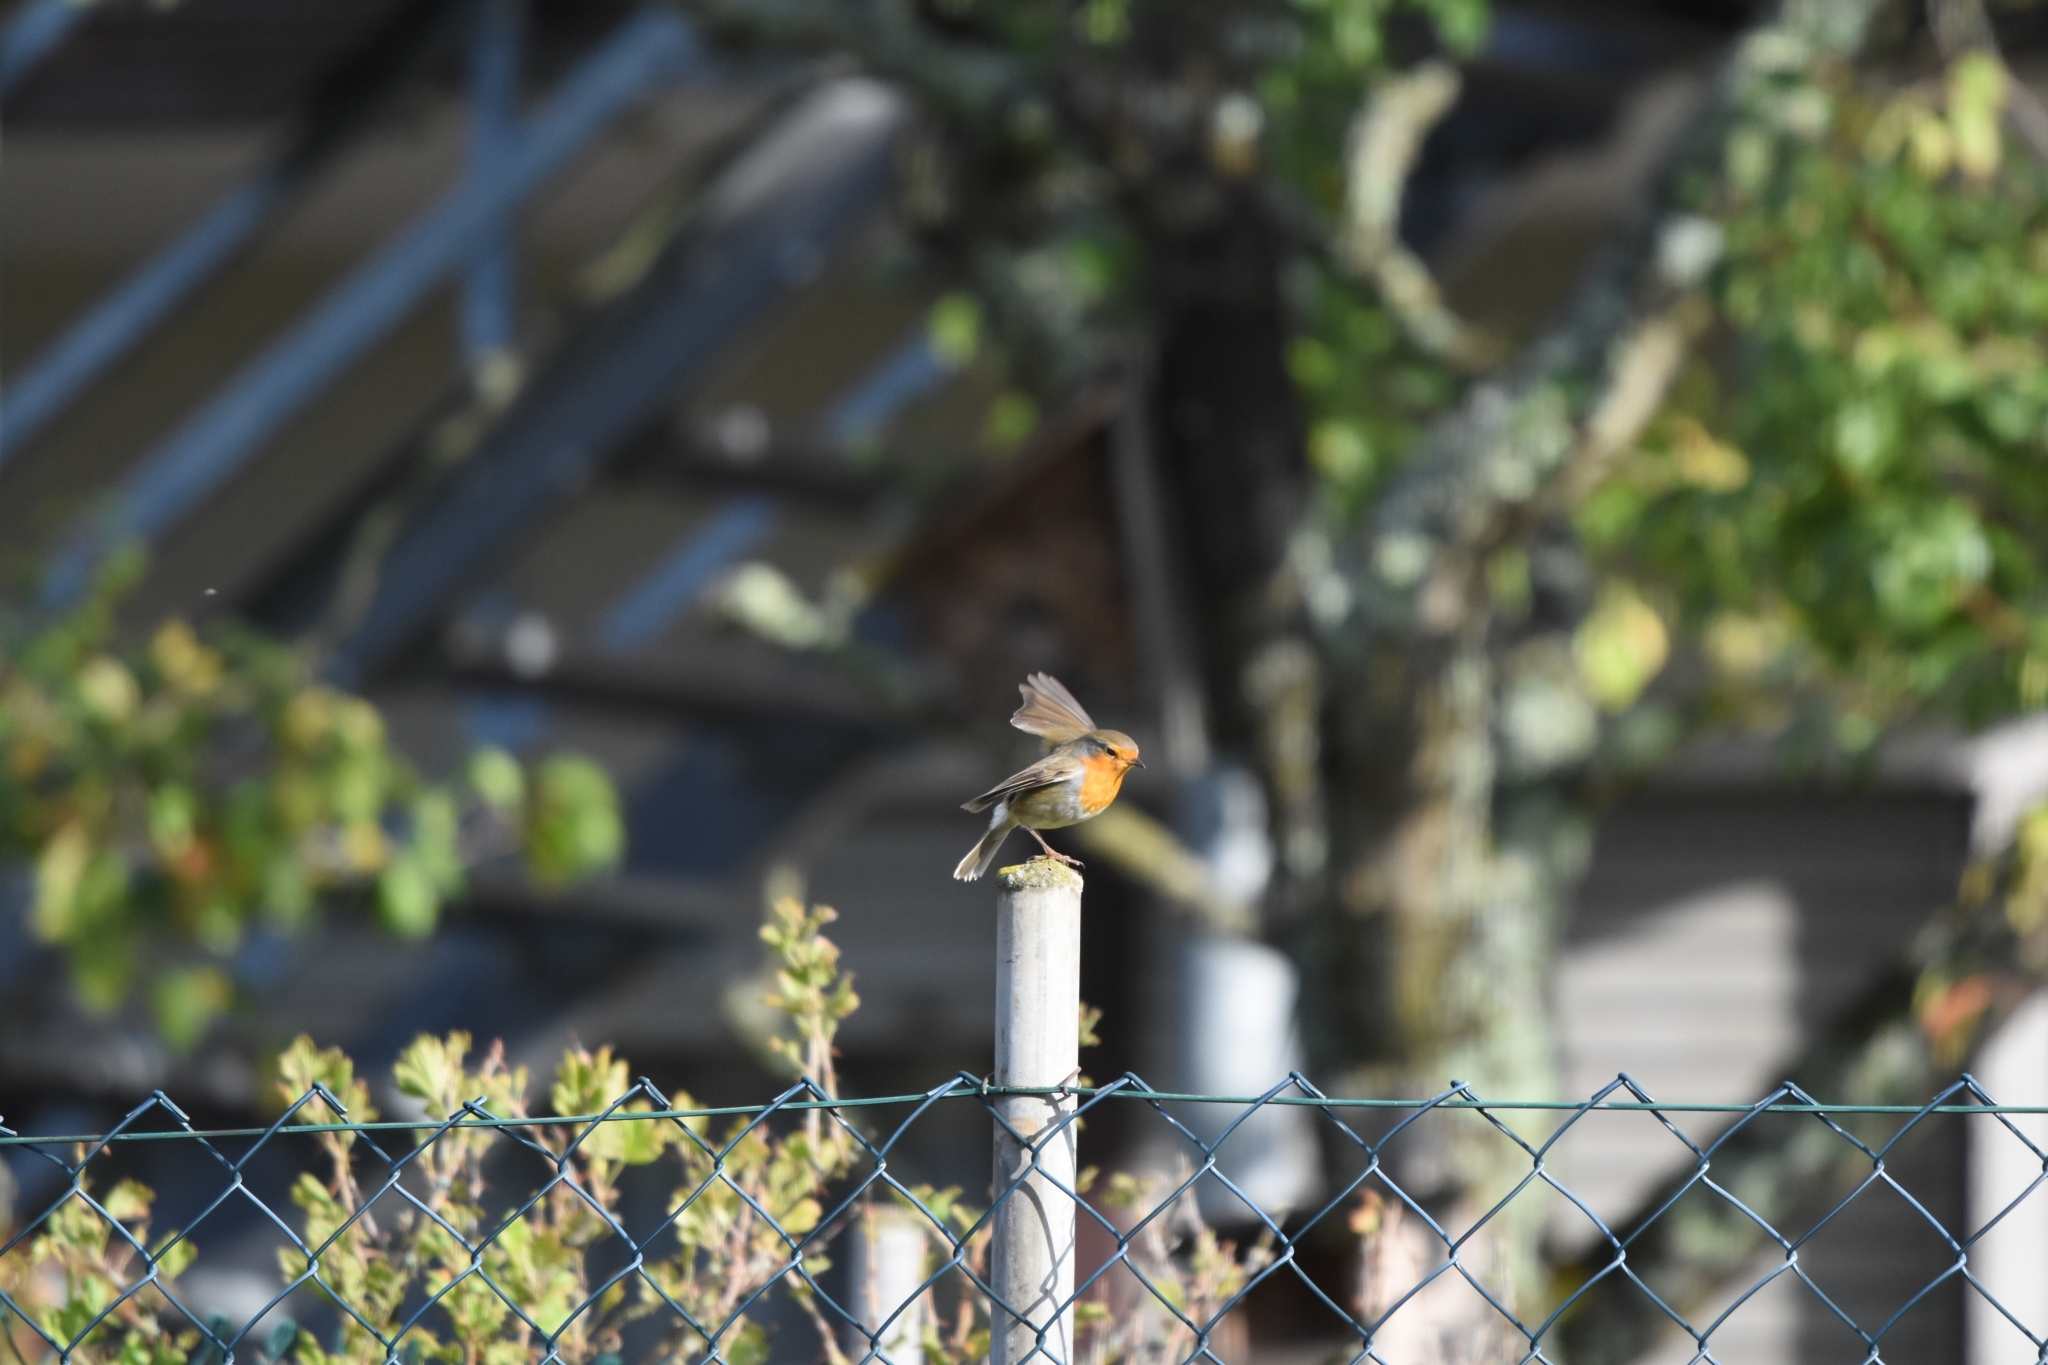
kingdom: Animalia
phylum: Chordata
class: Aves
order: Passeriformes
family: Muscicapidae
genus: Erithacus
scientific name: Erithacus rubecula
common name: European robin
